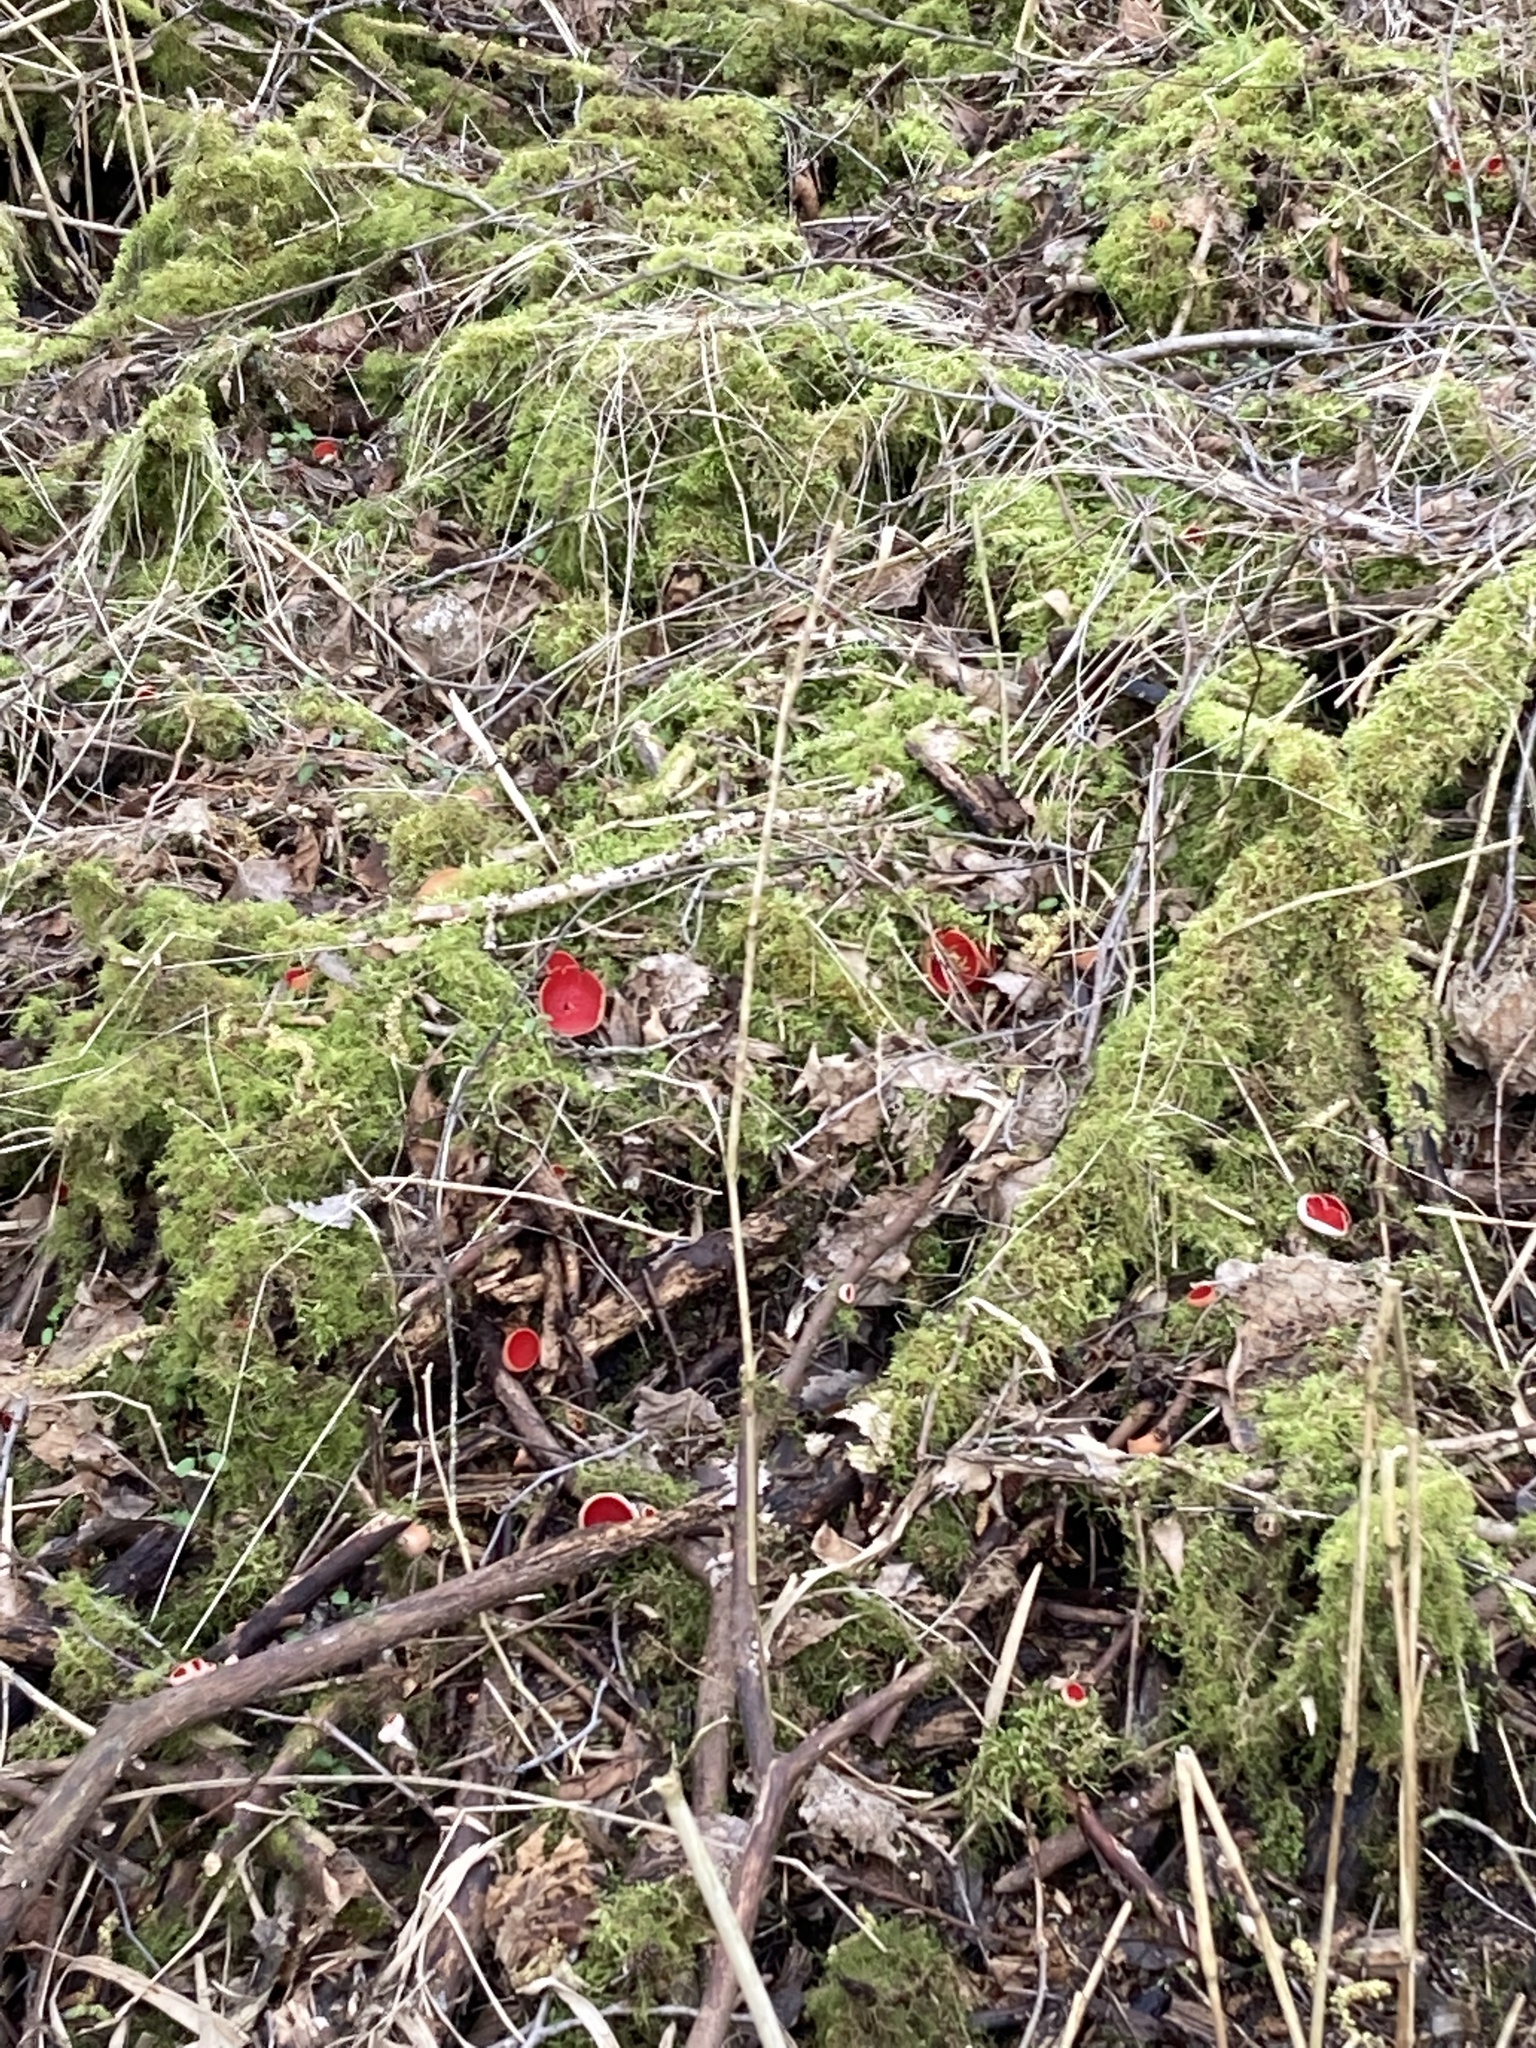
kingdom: Fungi
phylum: Ascomycota
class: Pezizomycetes
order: Pezizales
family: Sarcoscyphaceae
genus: Sarcoscypha
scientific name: Sarcoscypha
